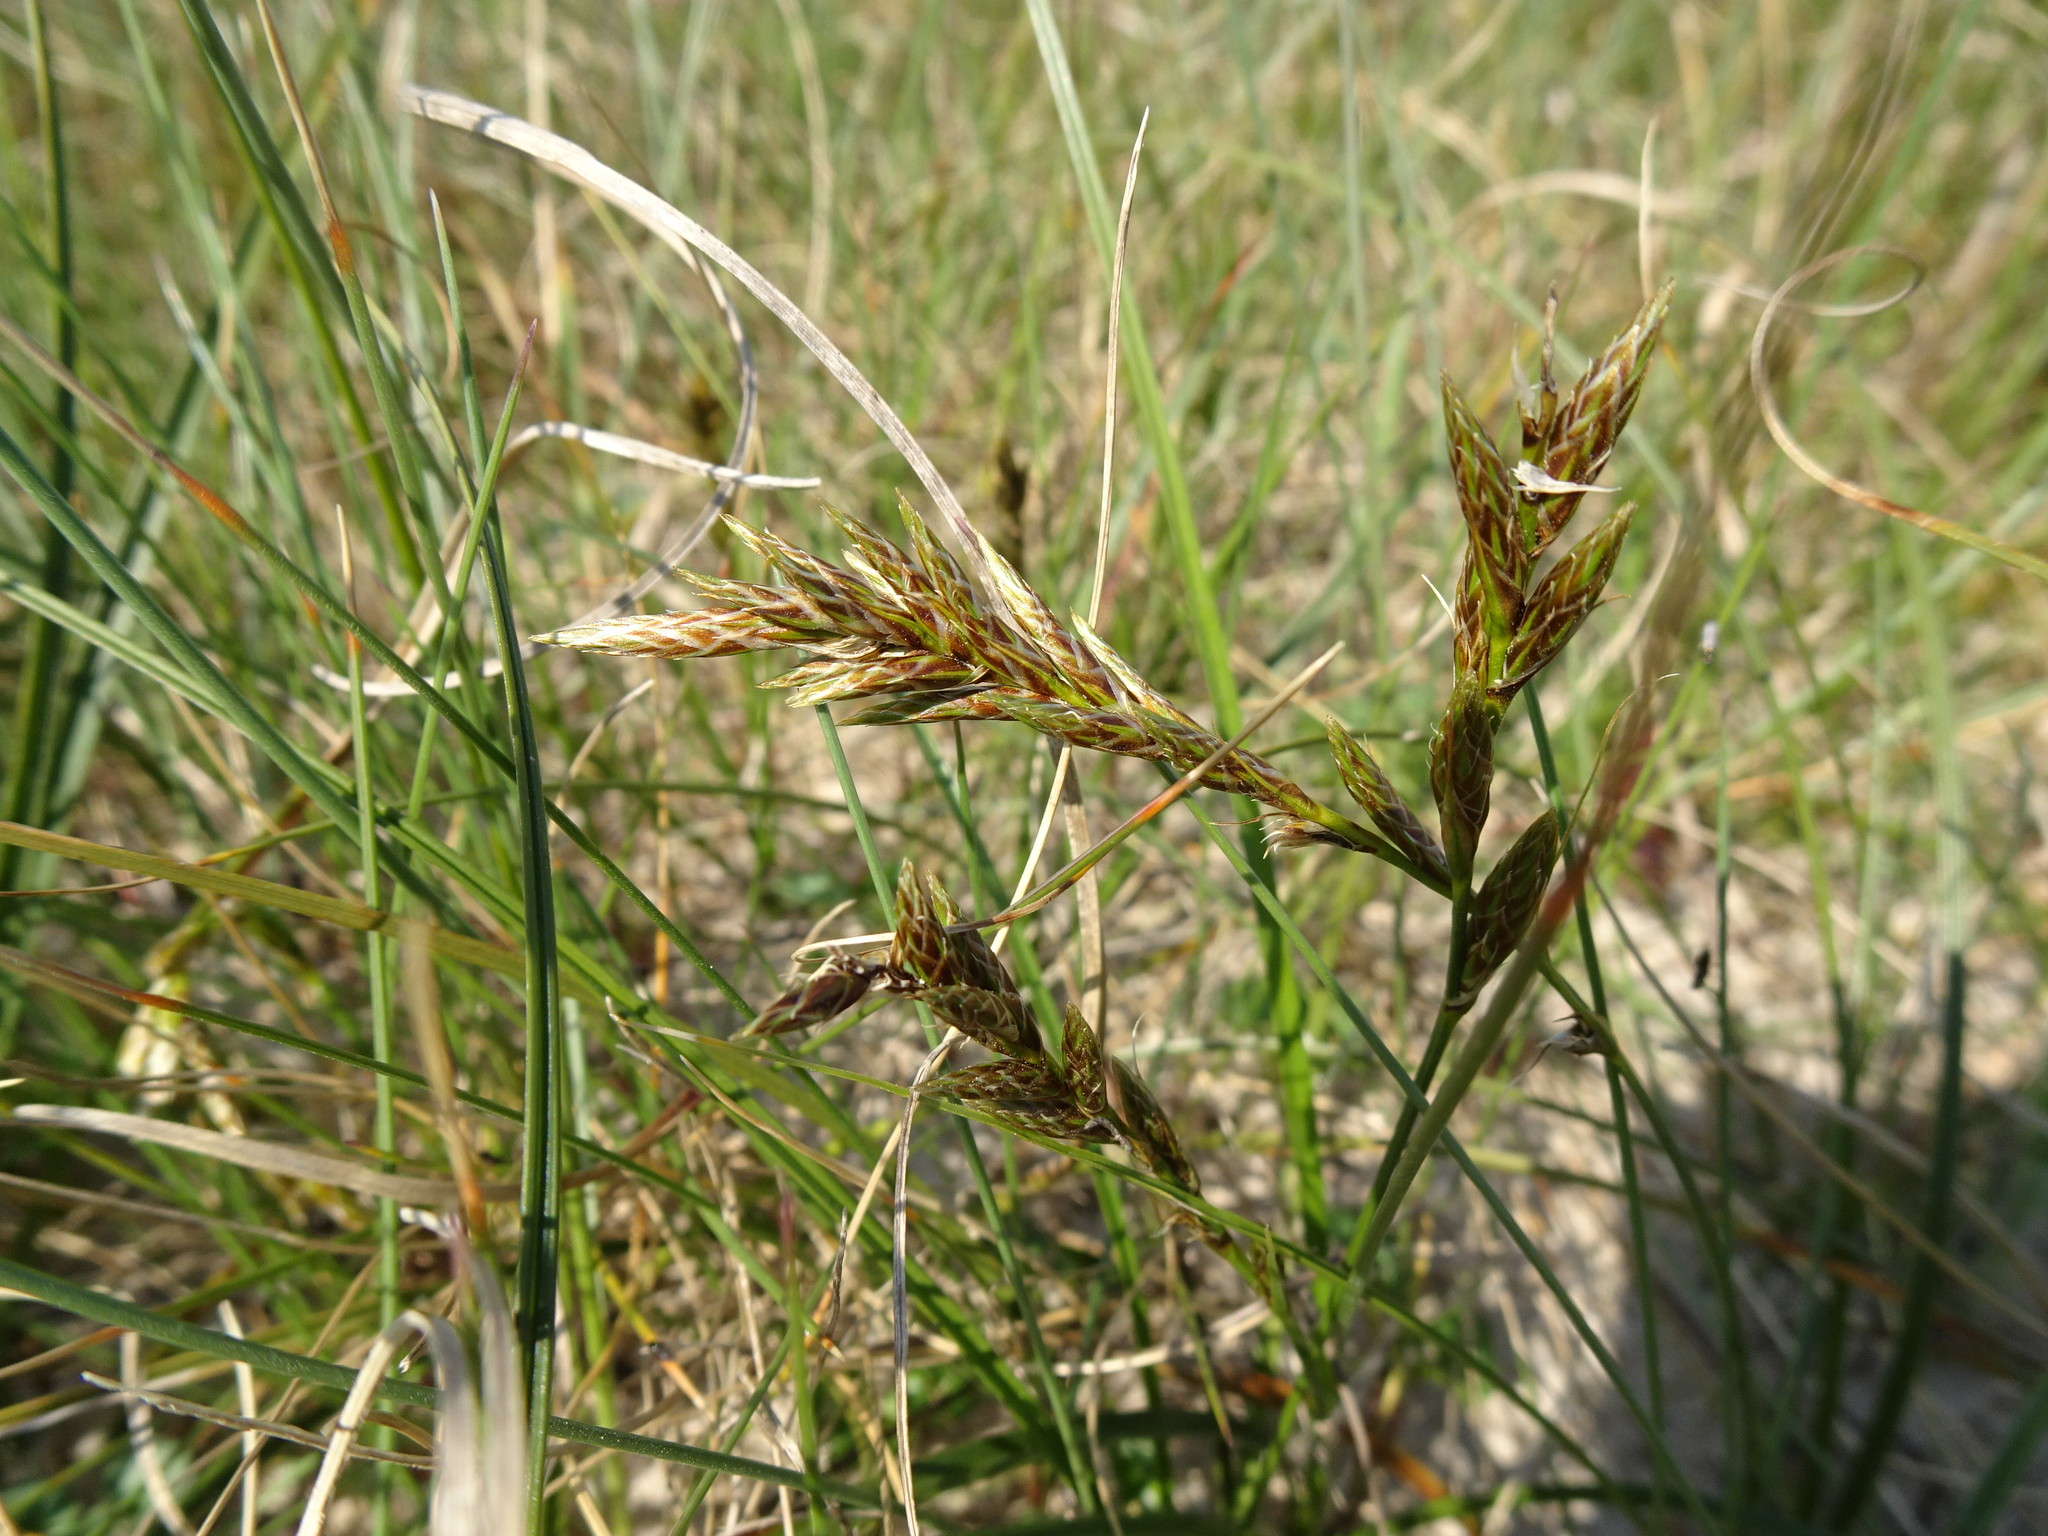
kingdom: Plantae
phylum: Tracheophyta
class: Liliopsida
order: Poales
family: Cyperaceae
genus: Carex
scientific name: Carex arenaria
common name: Sand sedge
